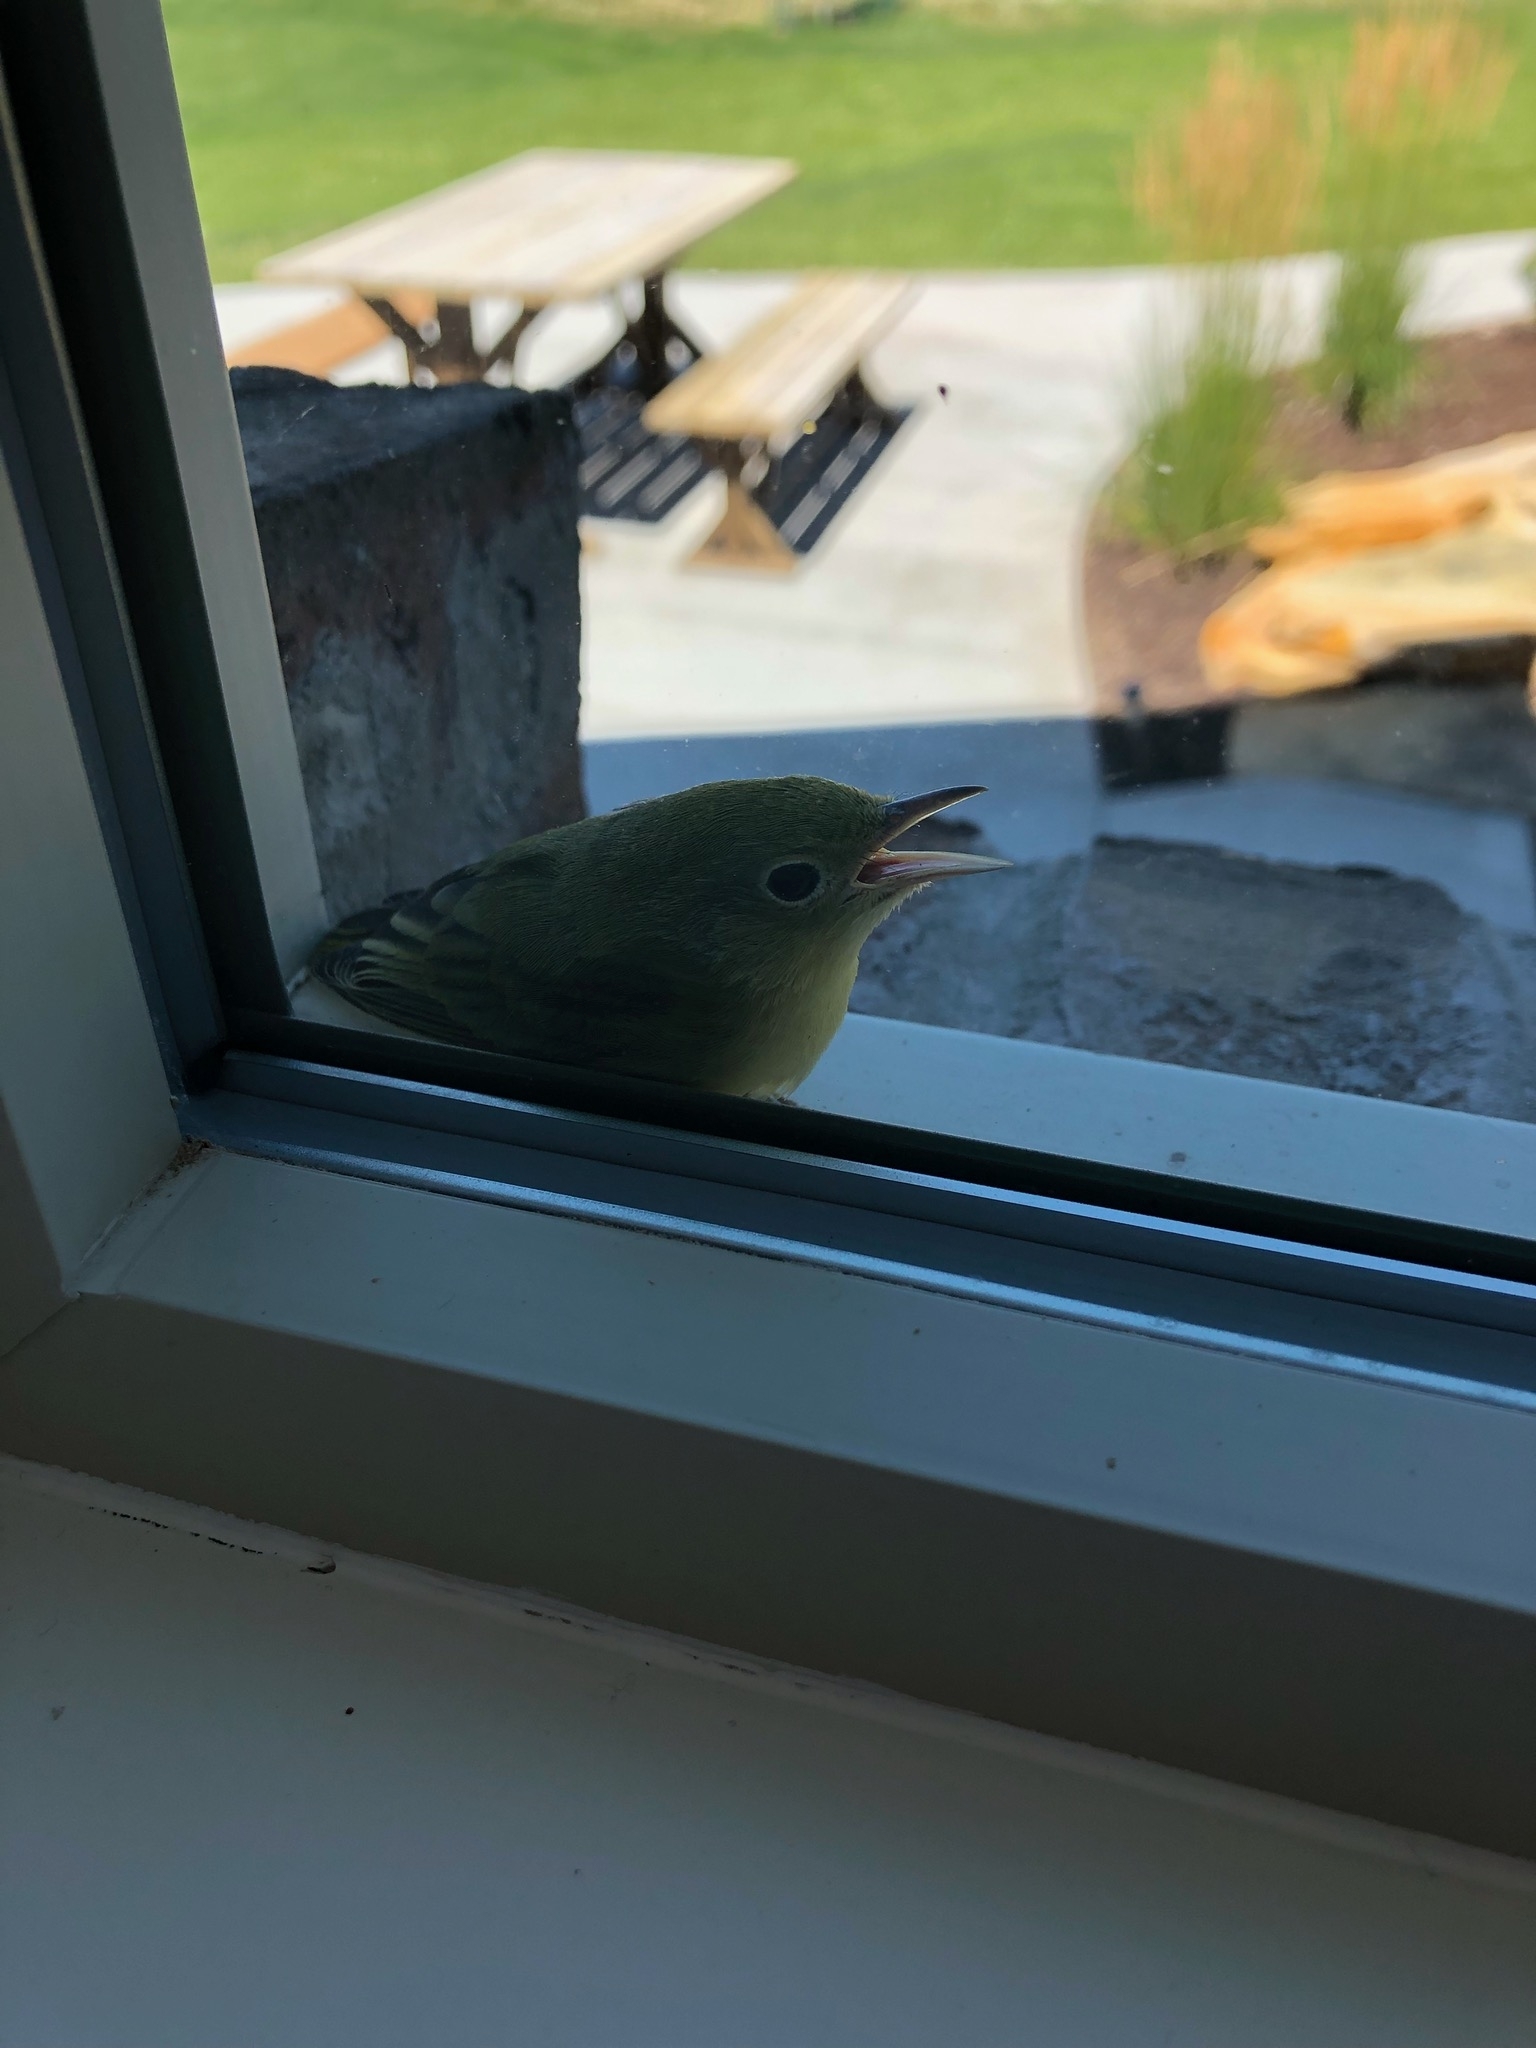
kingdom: Animalia
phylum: Chordata
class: Aves
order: Passeriformes
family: Parulidae
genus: Setophaga
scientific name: Setophaga petechia
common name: Yellow warbler
